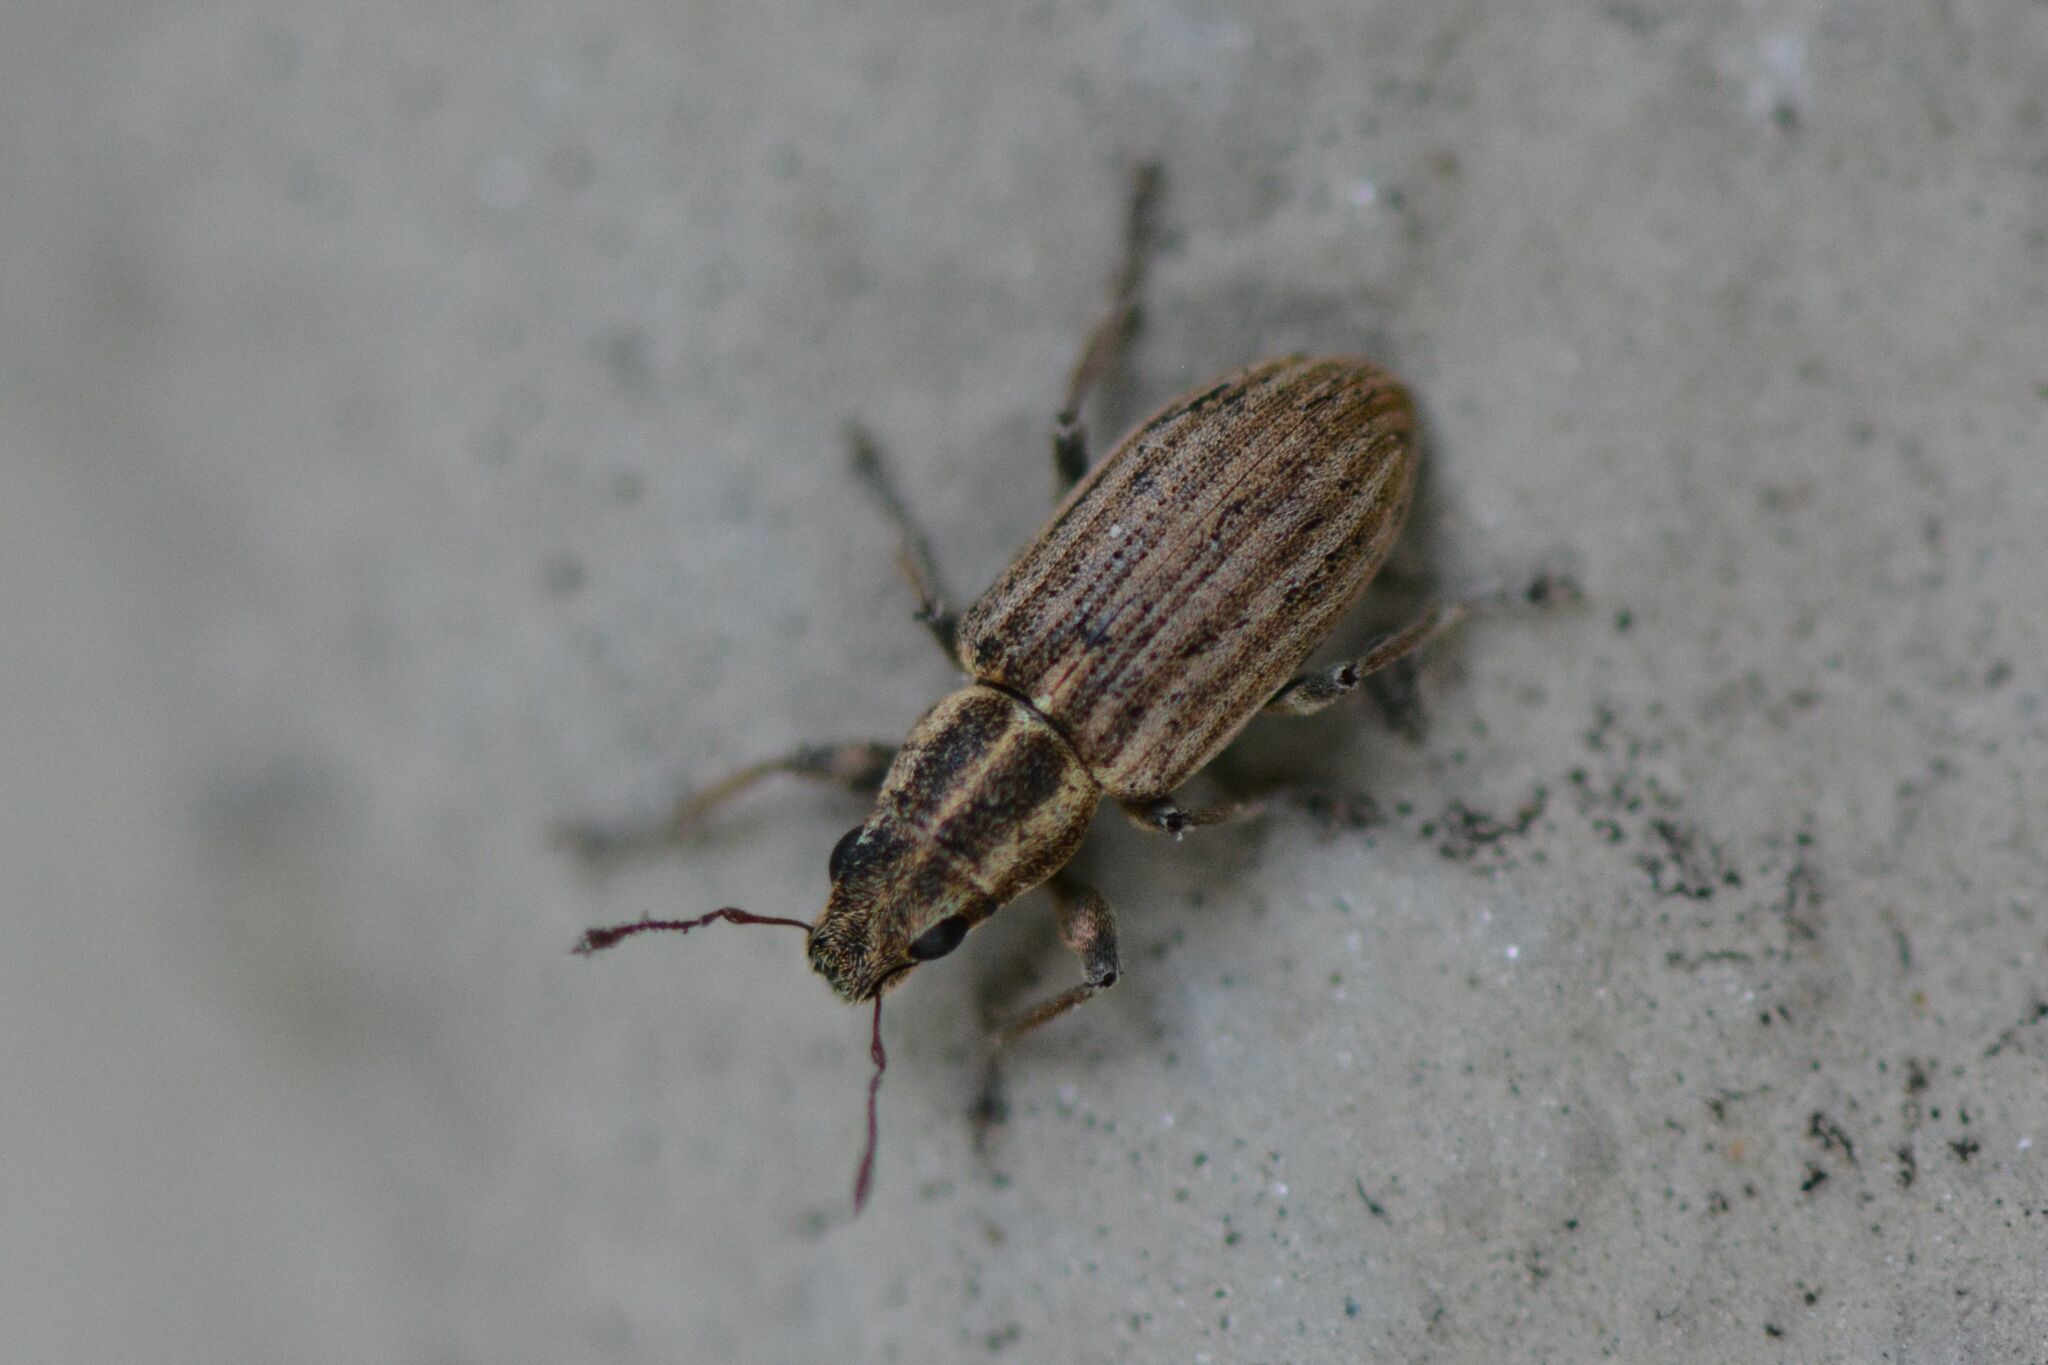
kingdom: Animalia
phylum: Arthropoda
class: Insecta
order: Coleoptera
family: Curculionidae
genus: Sitona
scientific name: Sitona lineatus
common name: Weevil
